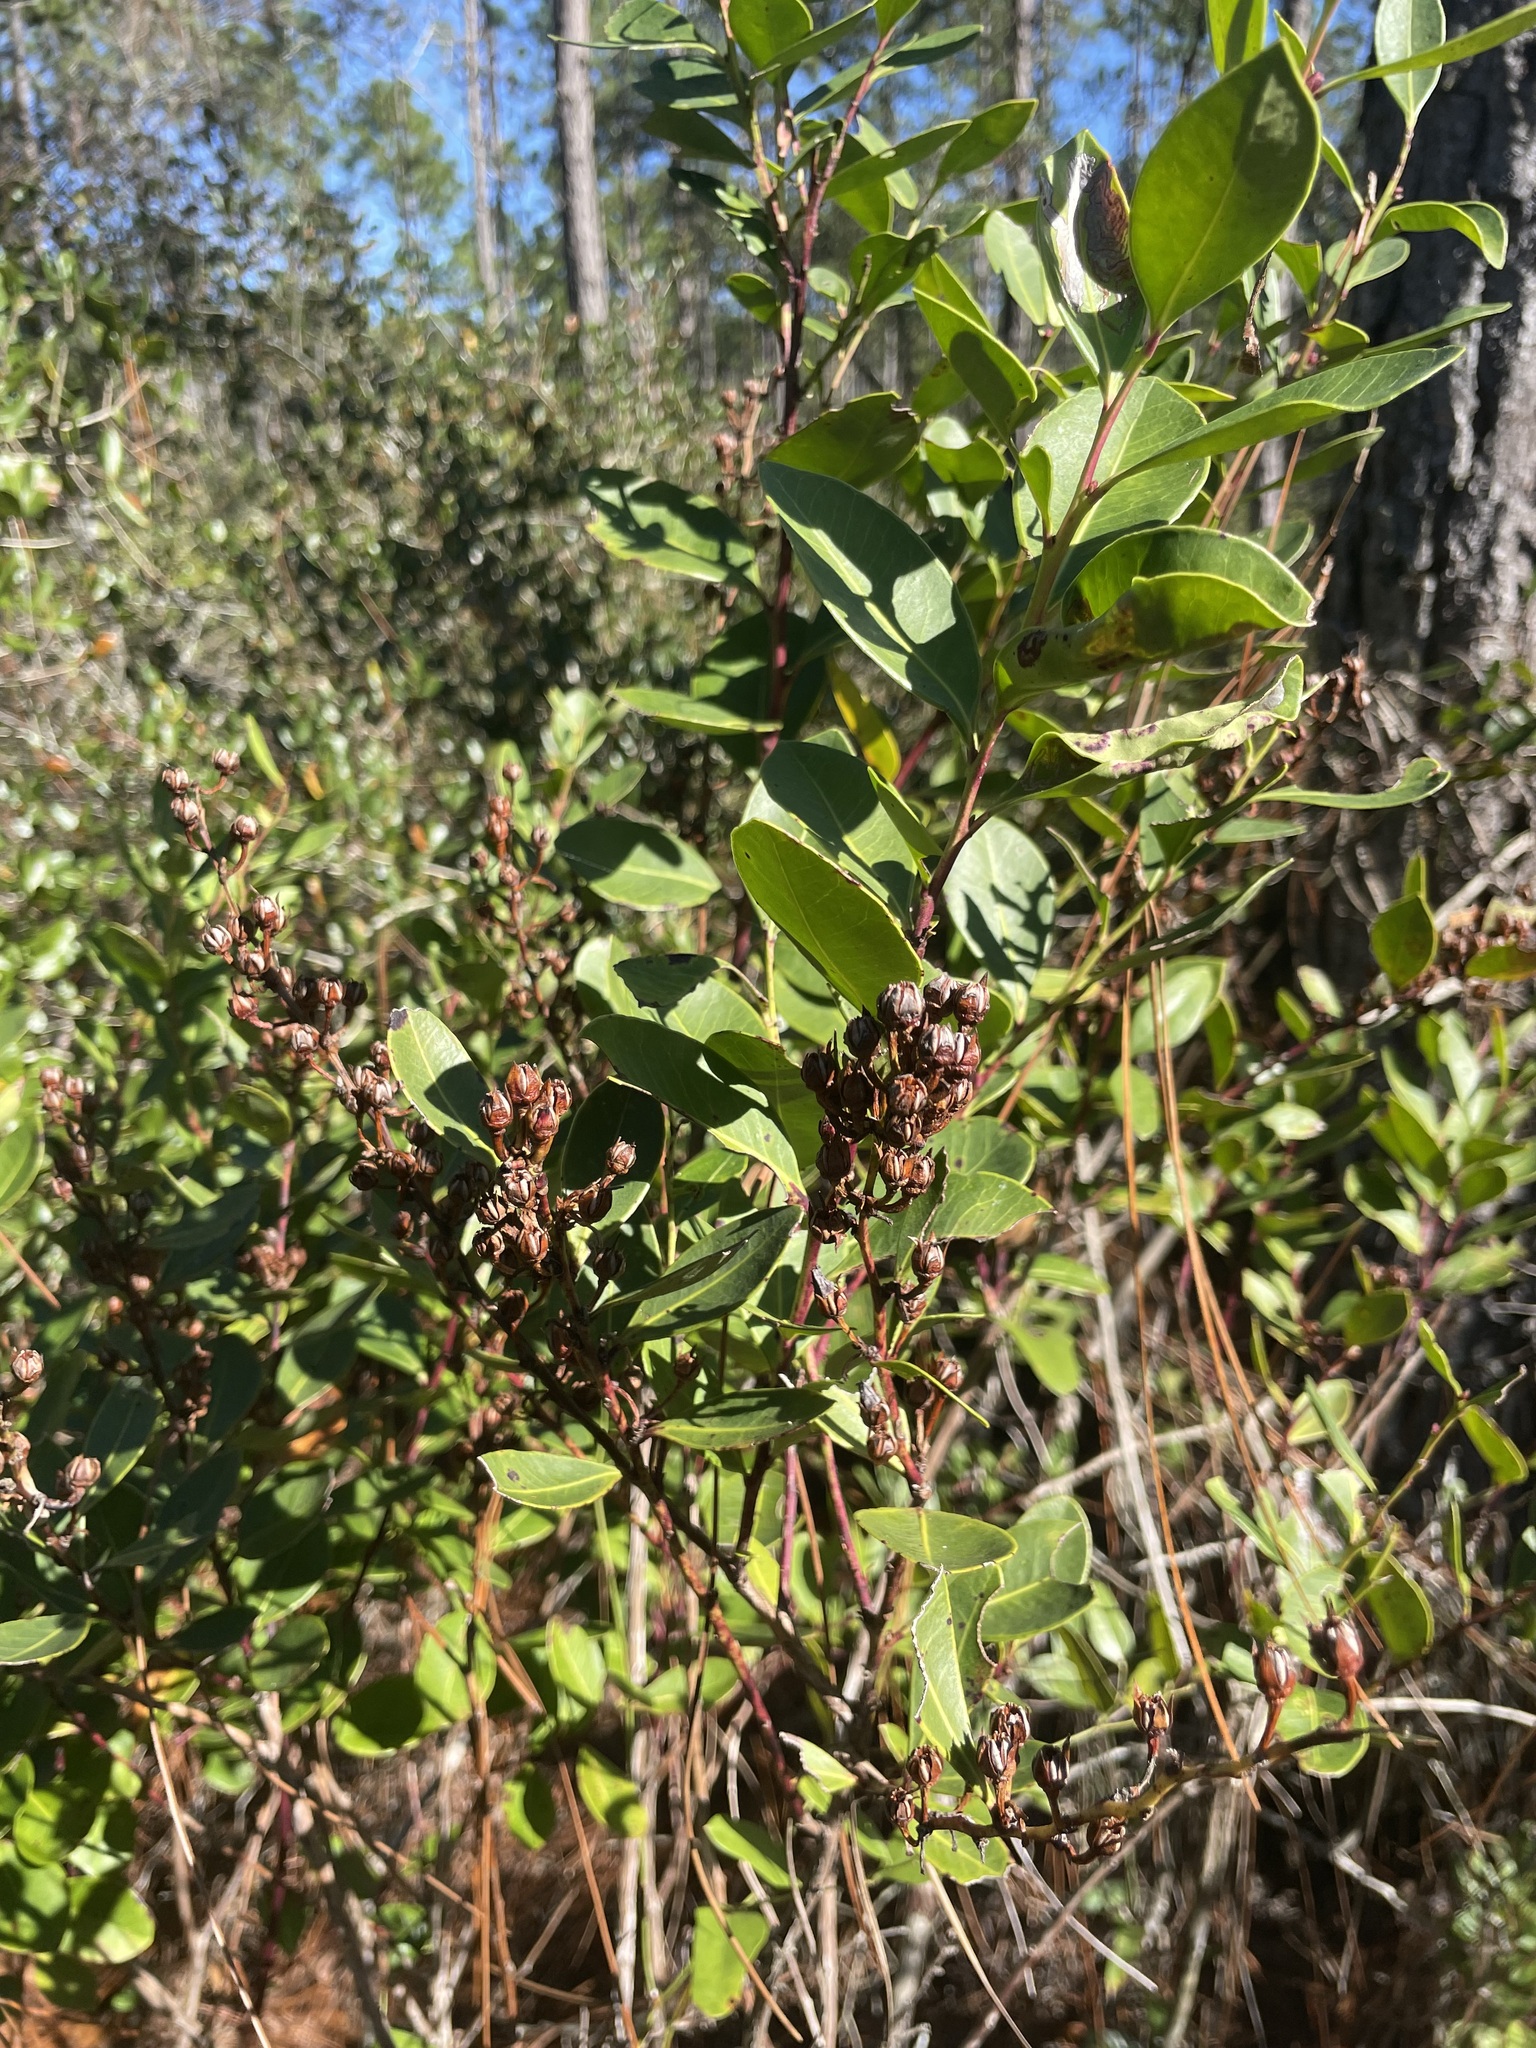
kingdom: Plantae
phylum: Tracheophyta
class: Magnoliopsida
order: Ericales
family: Ericaceae
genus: Lyonia
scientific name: Lyonia lucida
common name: Fetterbush
